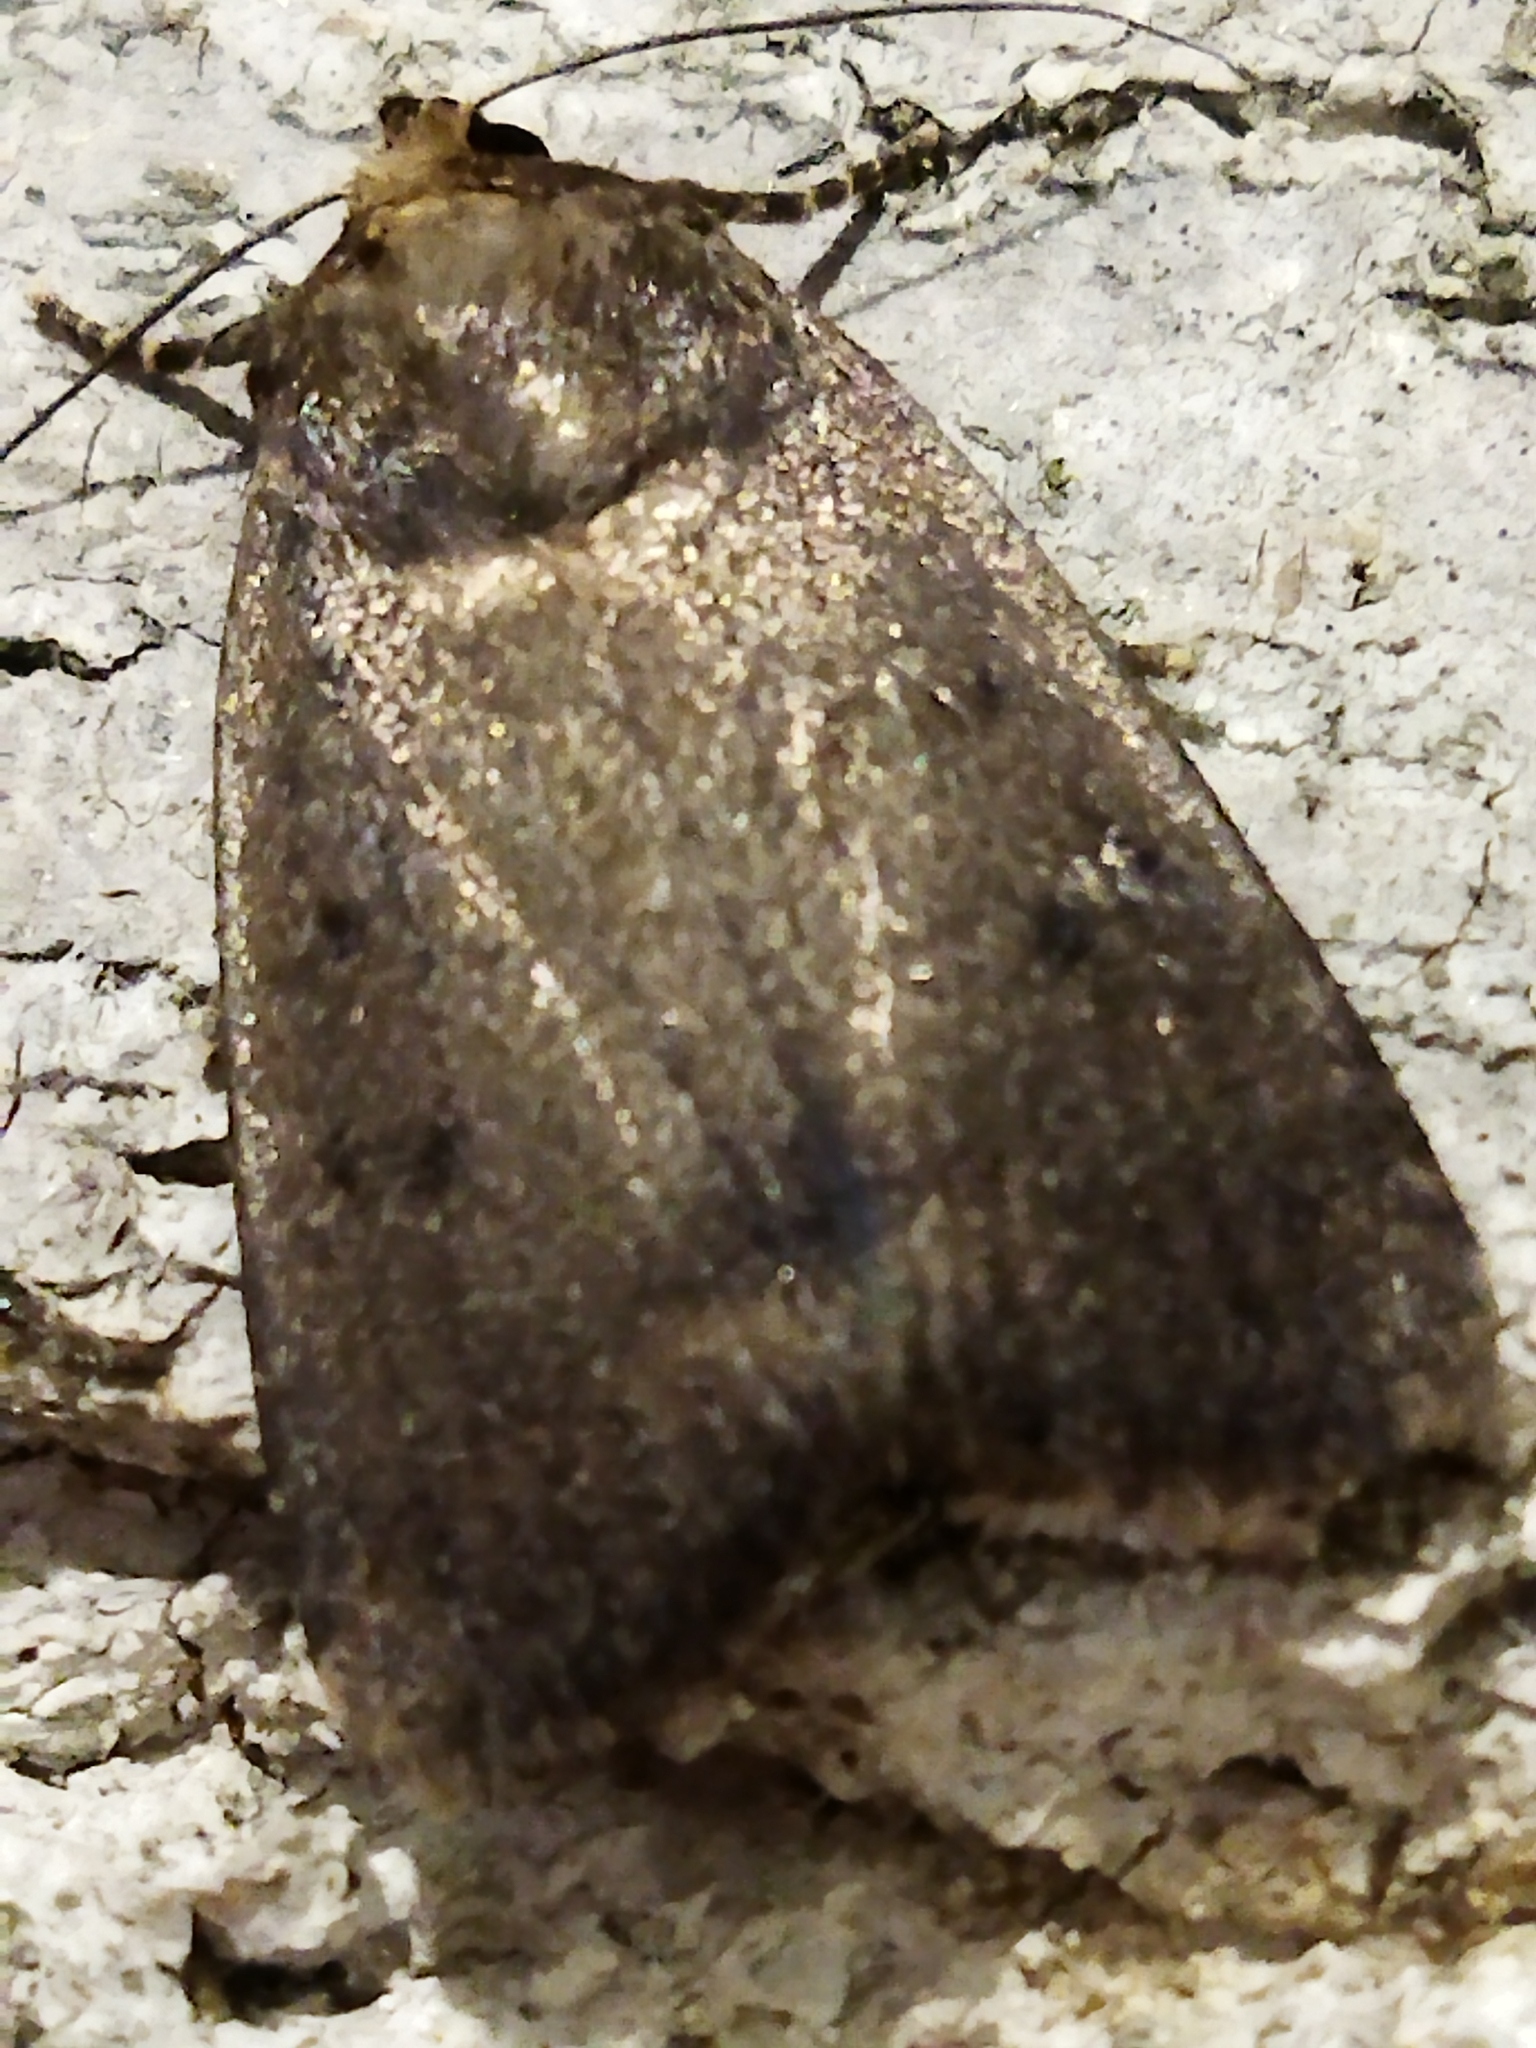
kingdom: Animalia
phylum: Arthropoda
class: Insecta
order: Lepidoptera
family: Noctuidae
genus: Amphipyra
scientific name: Amphipyra tragopoginis
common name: Mouse moth
